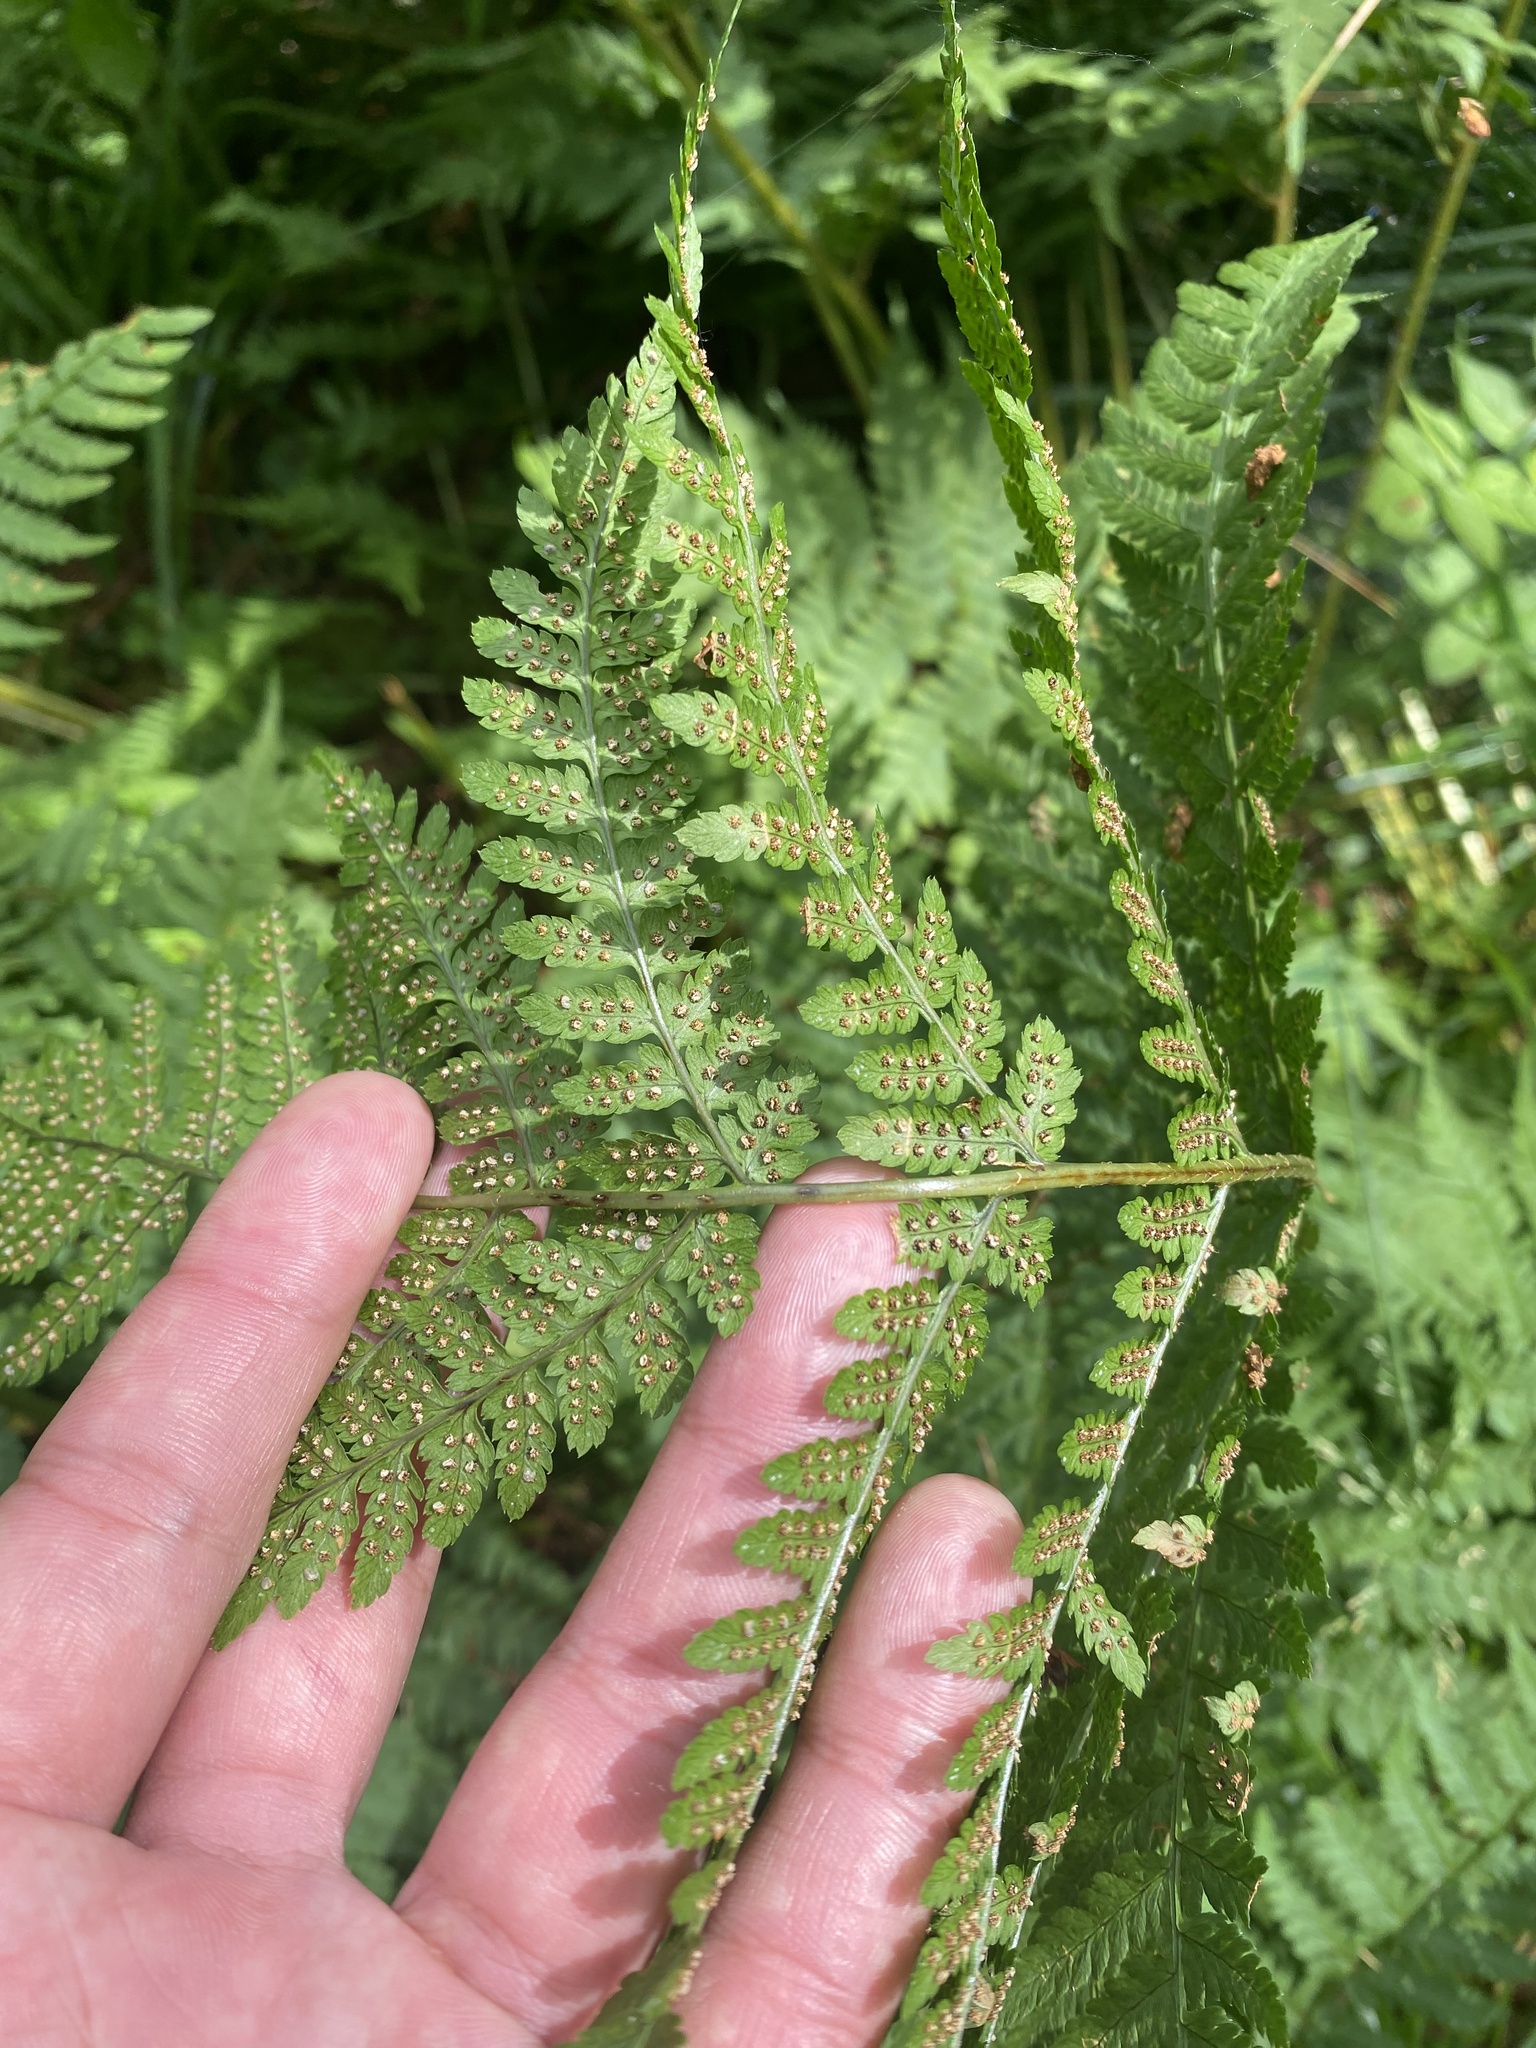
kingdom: Plantae
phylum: Tracheophyta
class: Polypodiopsida
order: Polypodiales
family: Dryopteridaceae
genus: Dryopteris
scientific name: Dryopteris expansa
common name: Northern buckler fern
